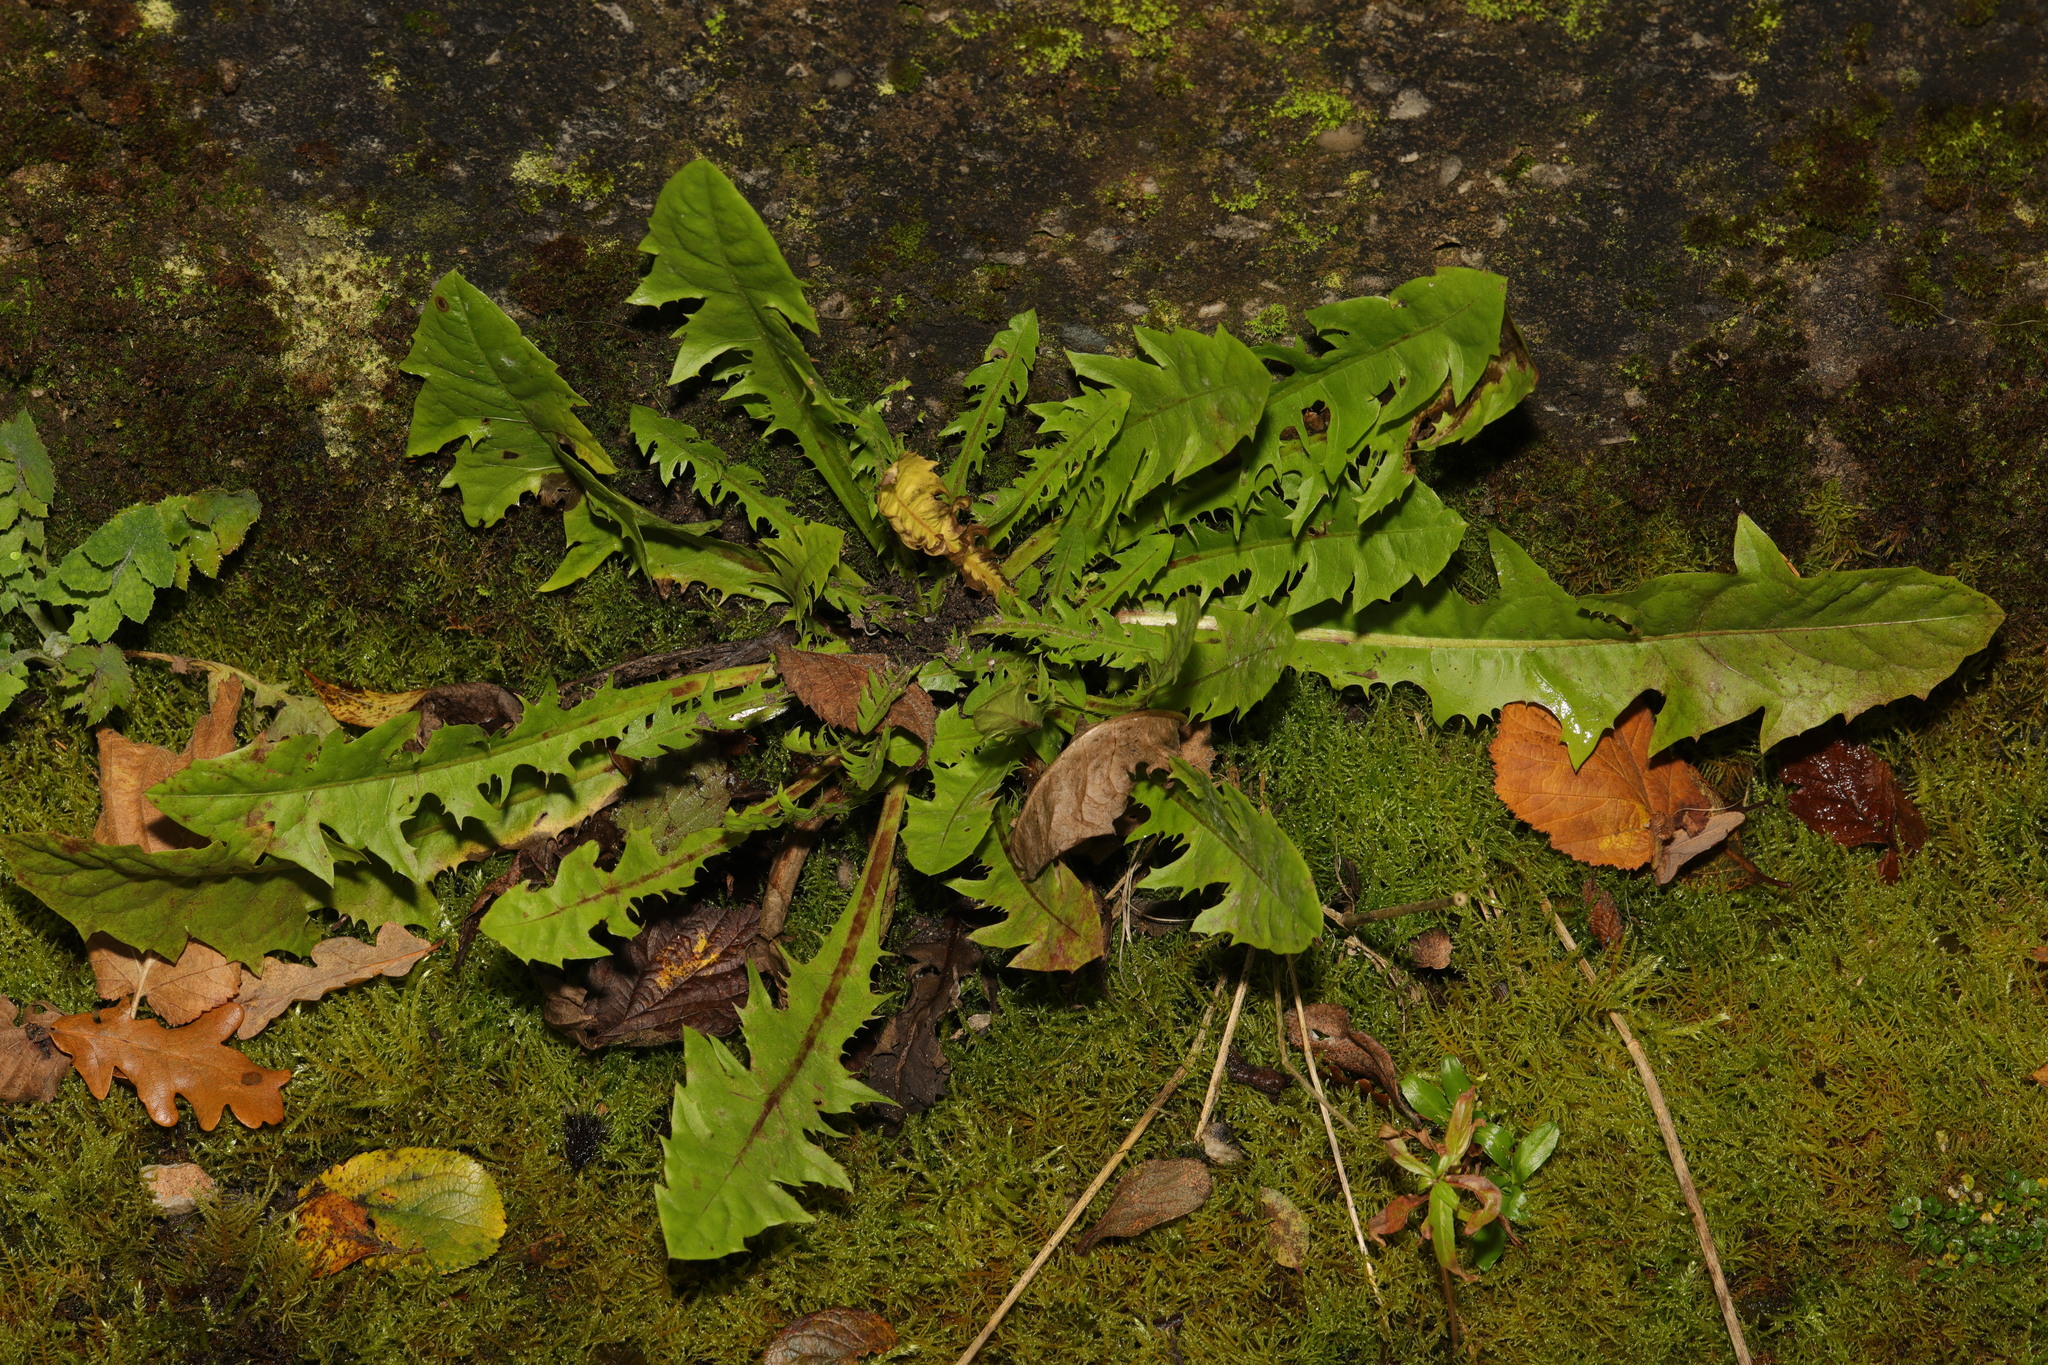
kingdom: Plantae
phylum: Tracheophyta
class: Magnoliopsida
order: Asterales
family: Asteraceae
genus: Taraxacum
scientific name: Taraxacum officinale
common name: Common dandelion
